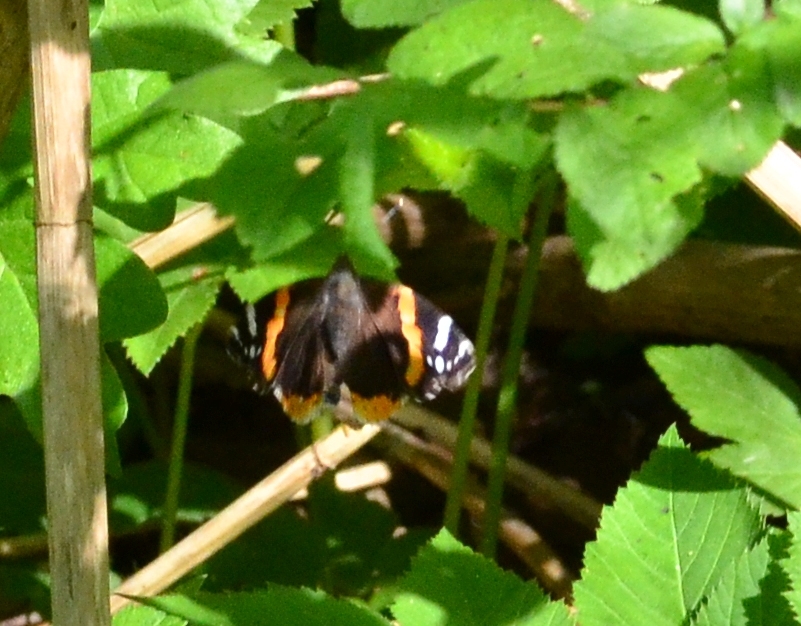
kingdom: Animalia
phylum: Arthropoda
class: Insecta
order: Lepidoptera
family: Nymphalidae
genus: Vanessa
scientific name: Vanessa atalanta
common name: Red admiral
